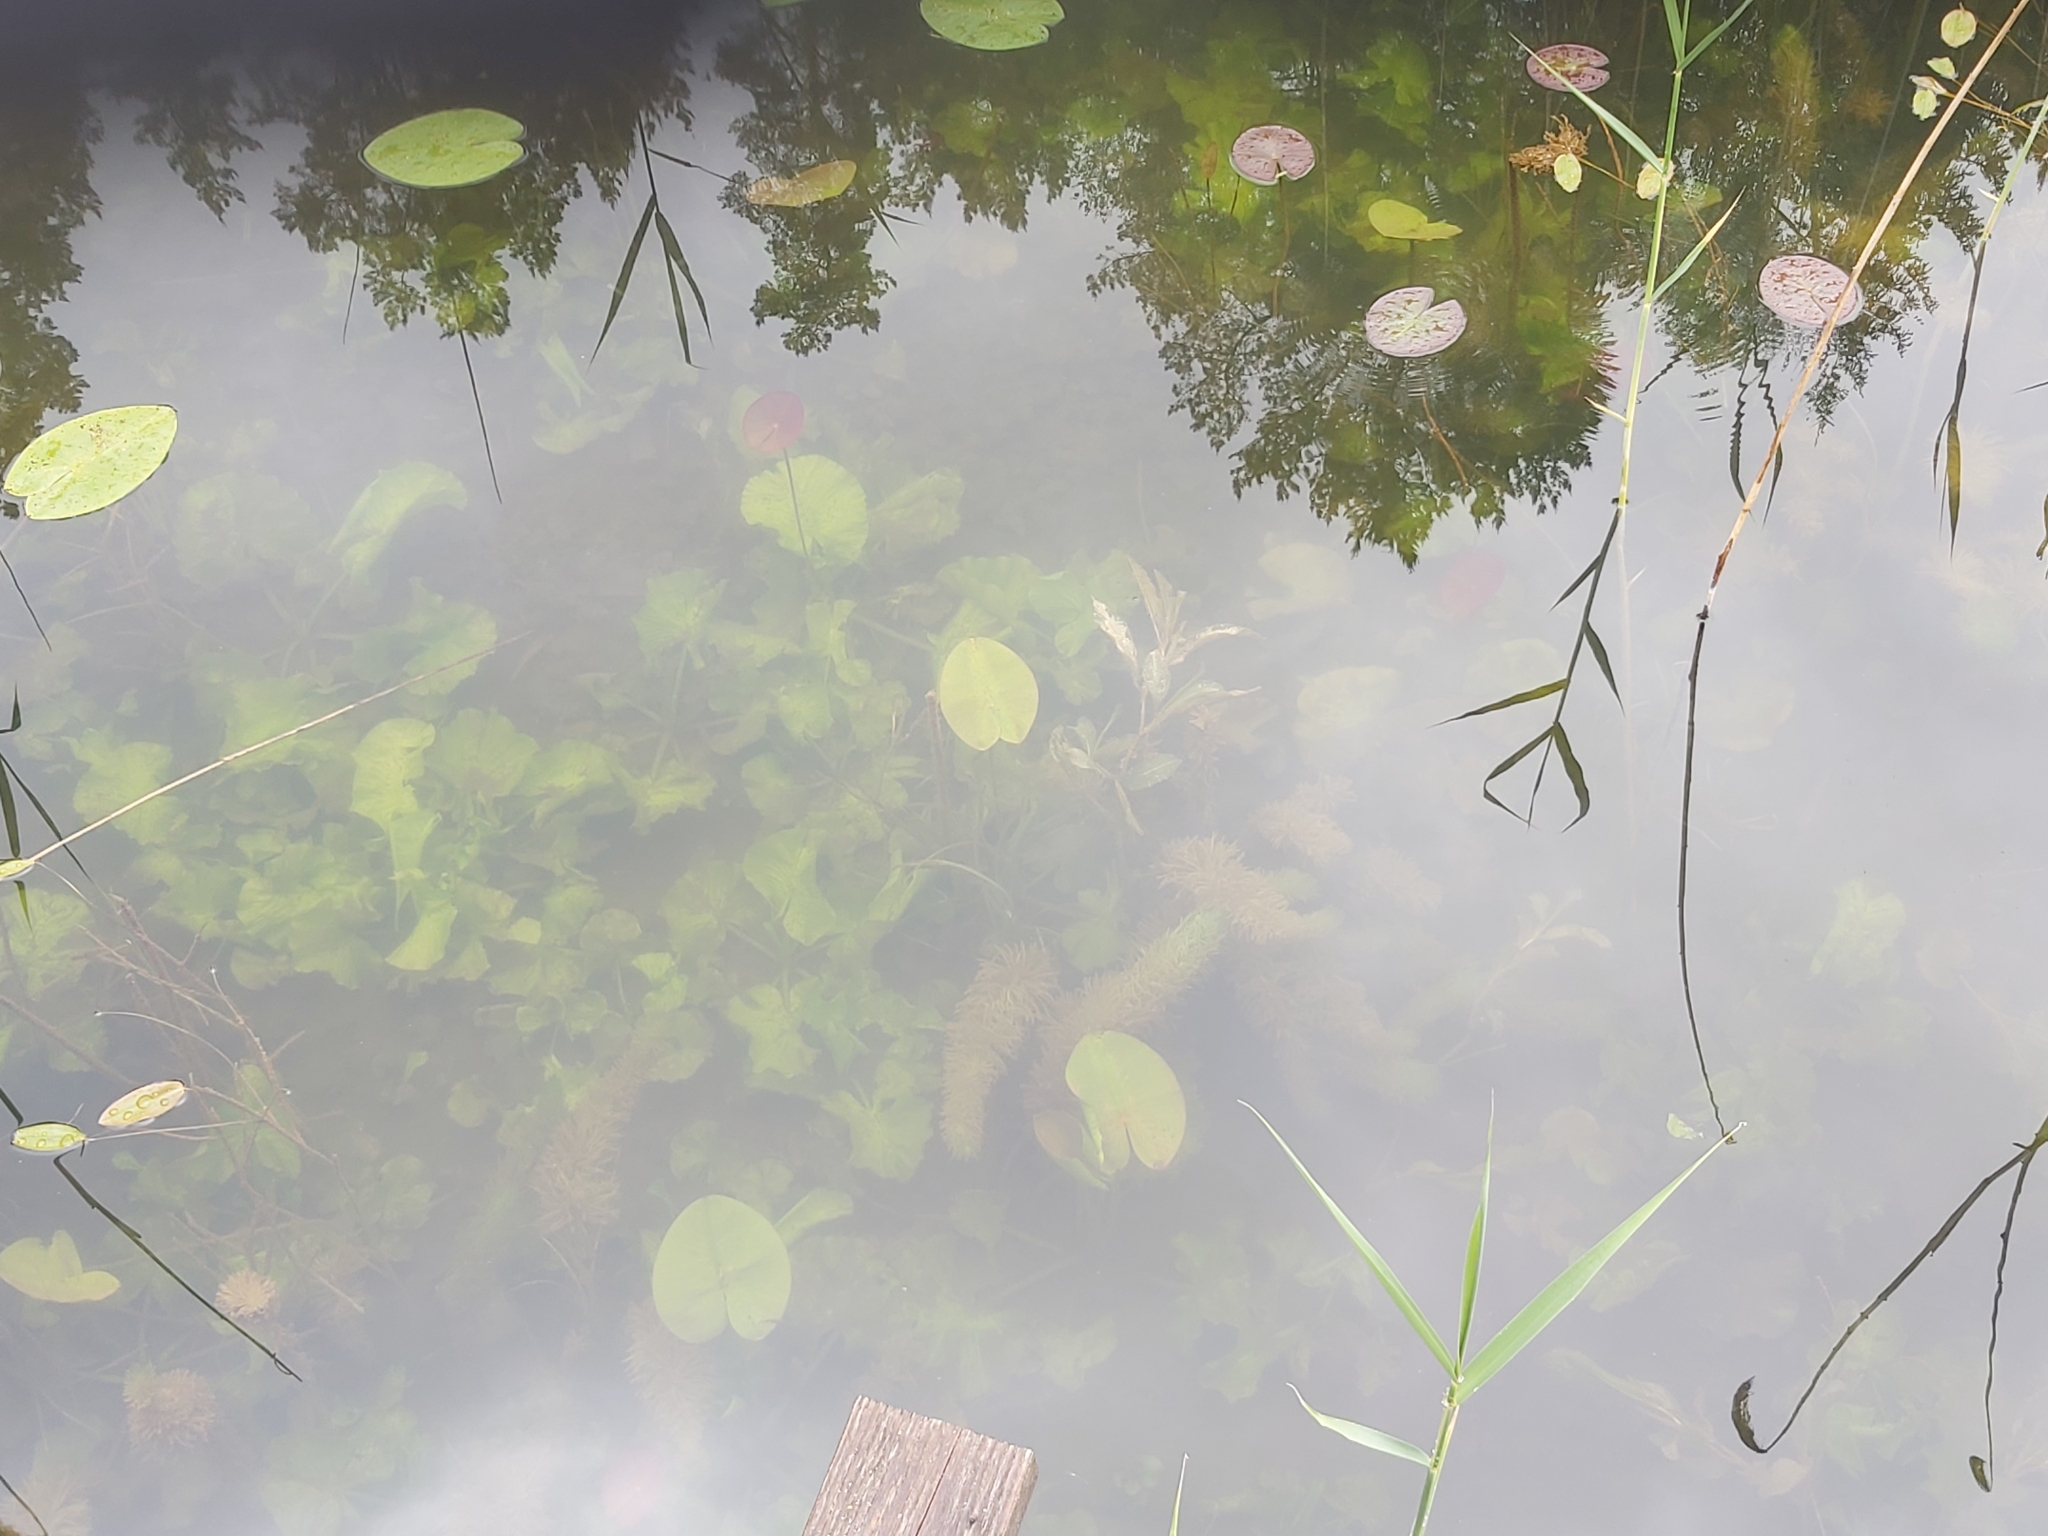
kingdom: Plantae
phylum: Tracheophyta
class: Magnoliopsida
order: Lamiales
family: Plantaginaceae
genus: Hippuris
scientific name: Hippuris vulgaris
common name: Mare's-tail
